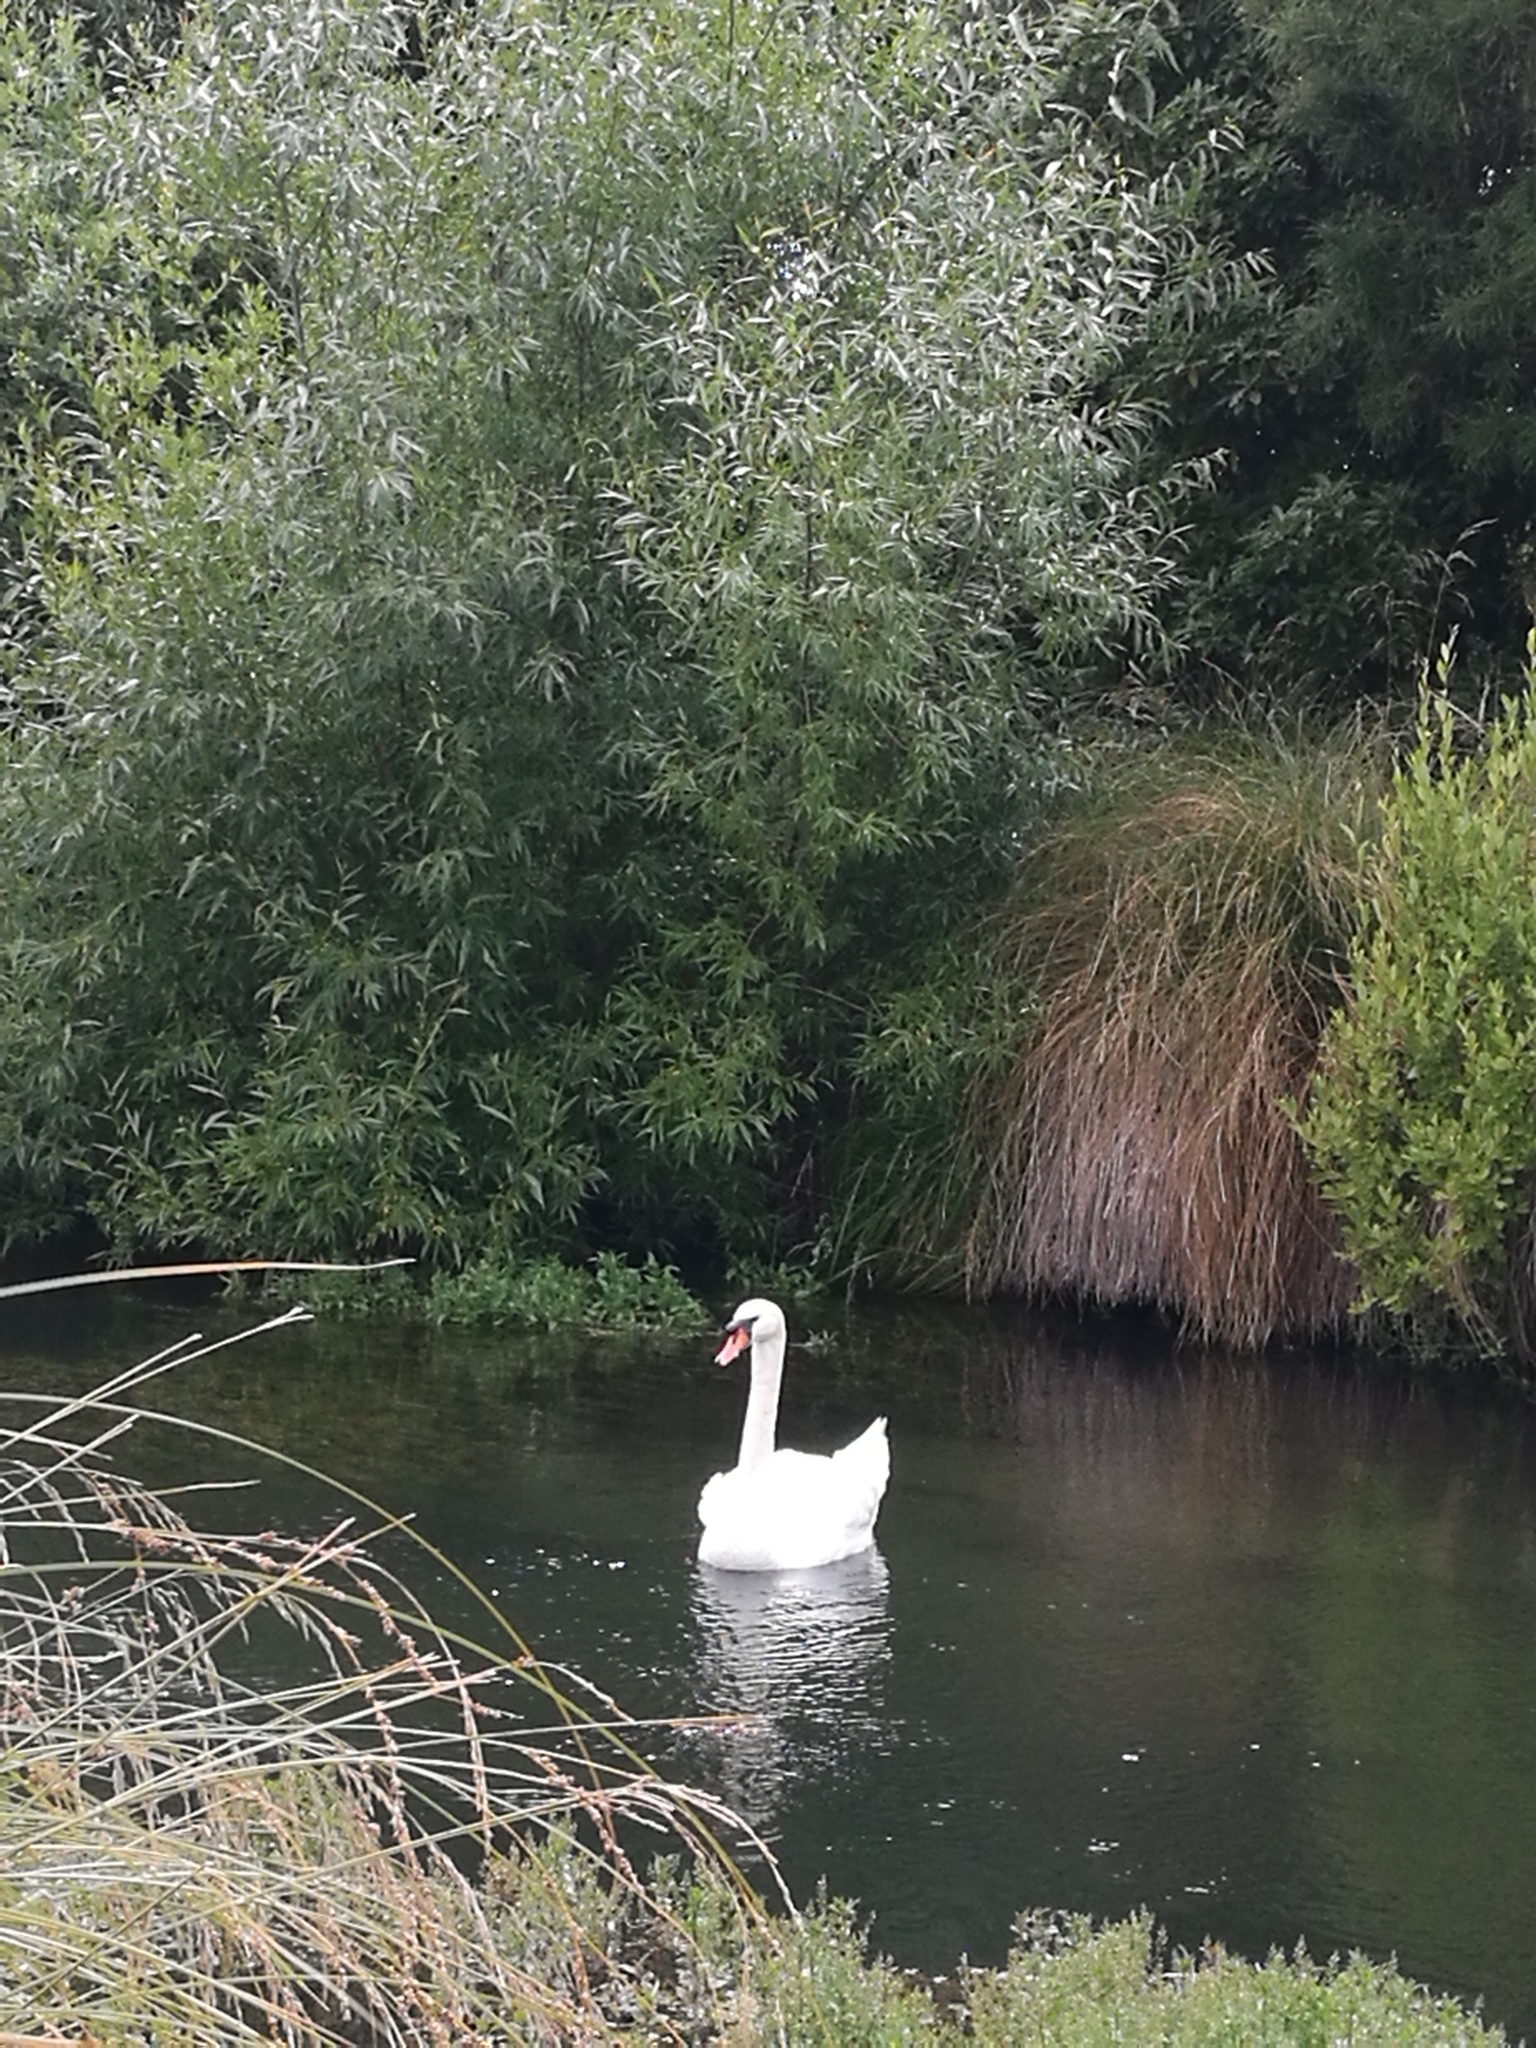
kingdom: Animalia
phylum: Chordata
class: Aves
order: Anseriformes
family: Anatidae
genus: Cygnus
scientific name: Cygnus olor
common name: Mute swan
